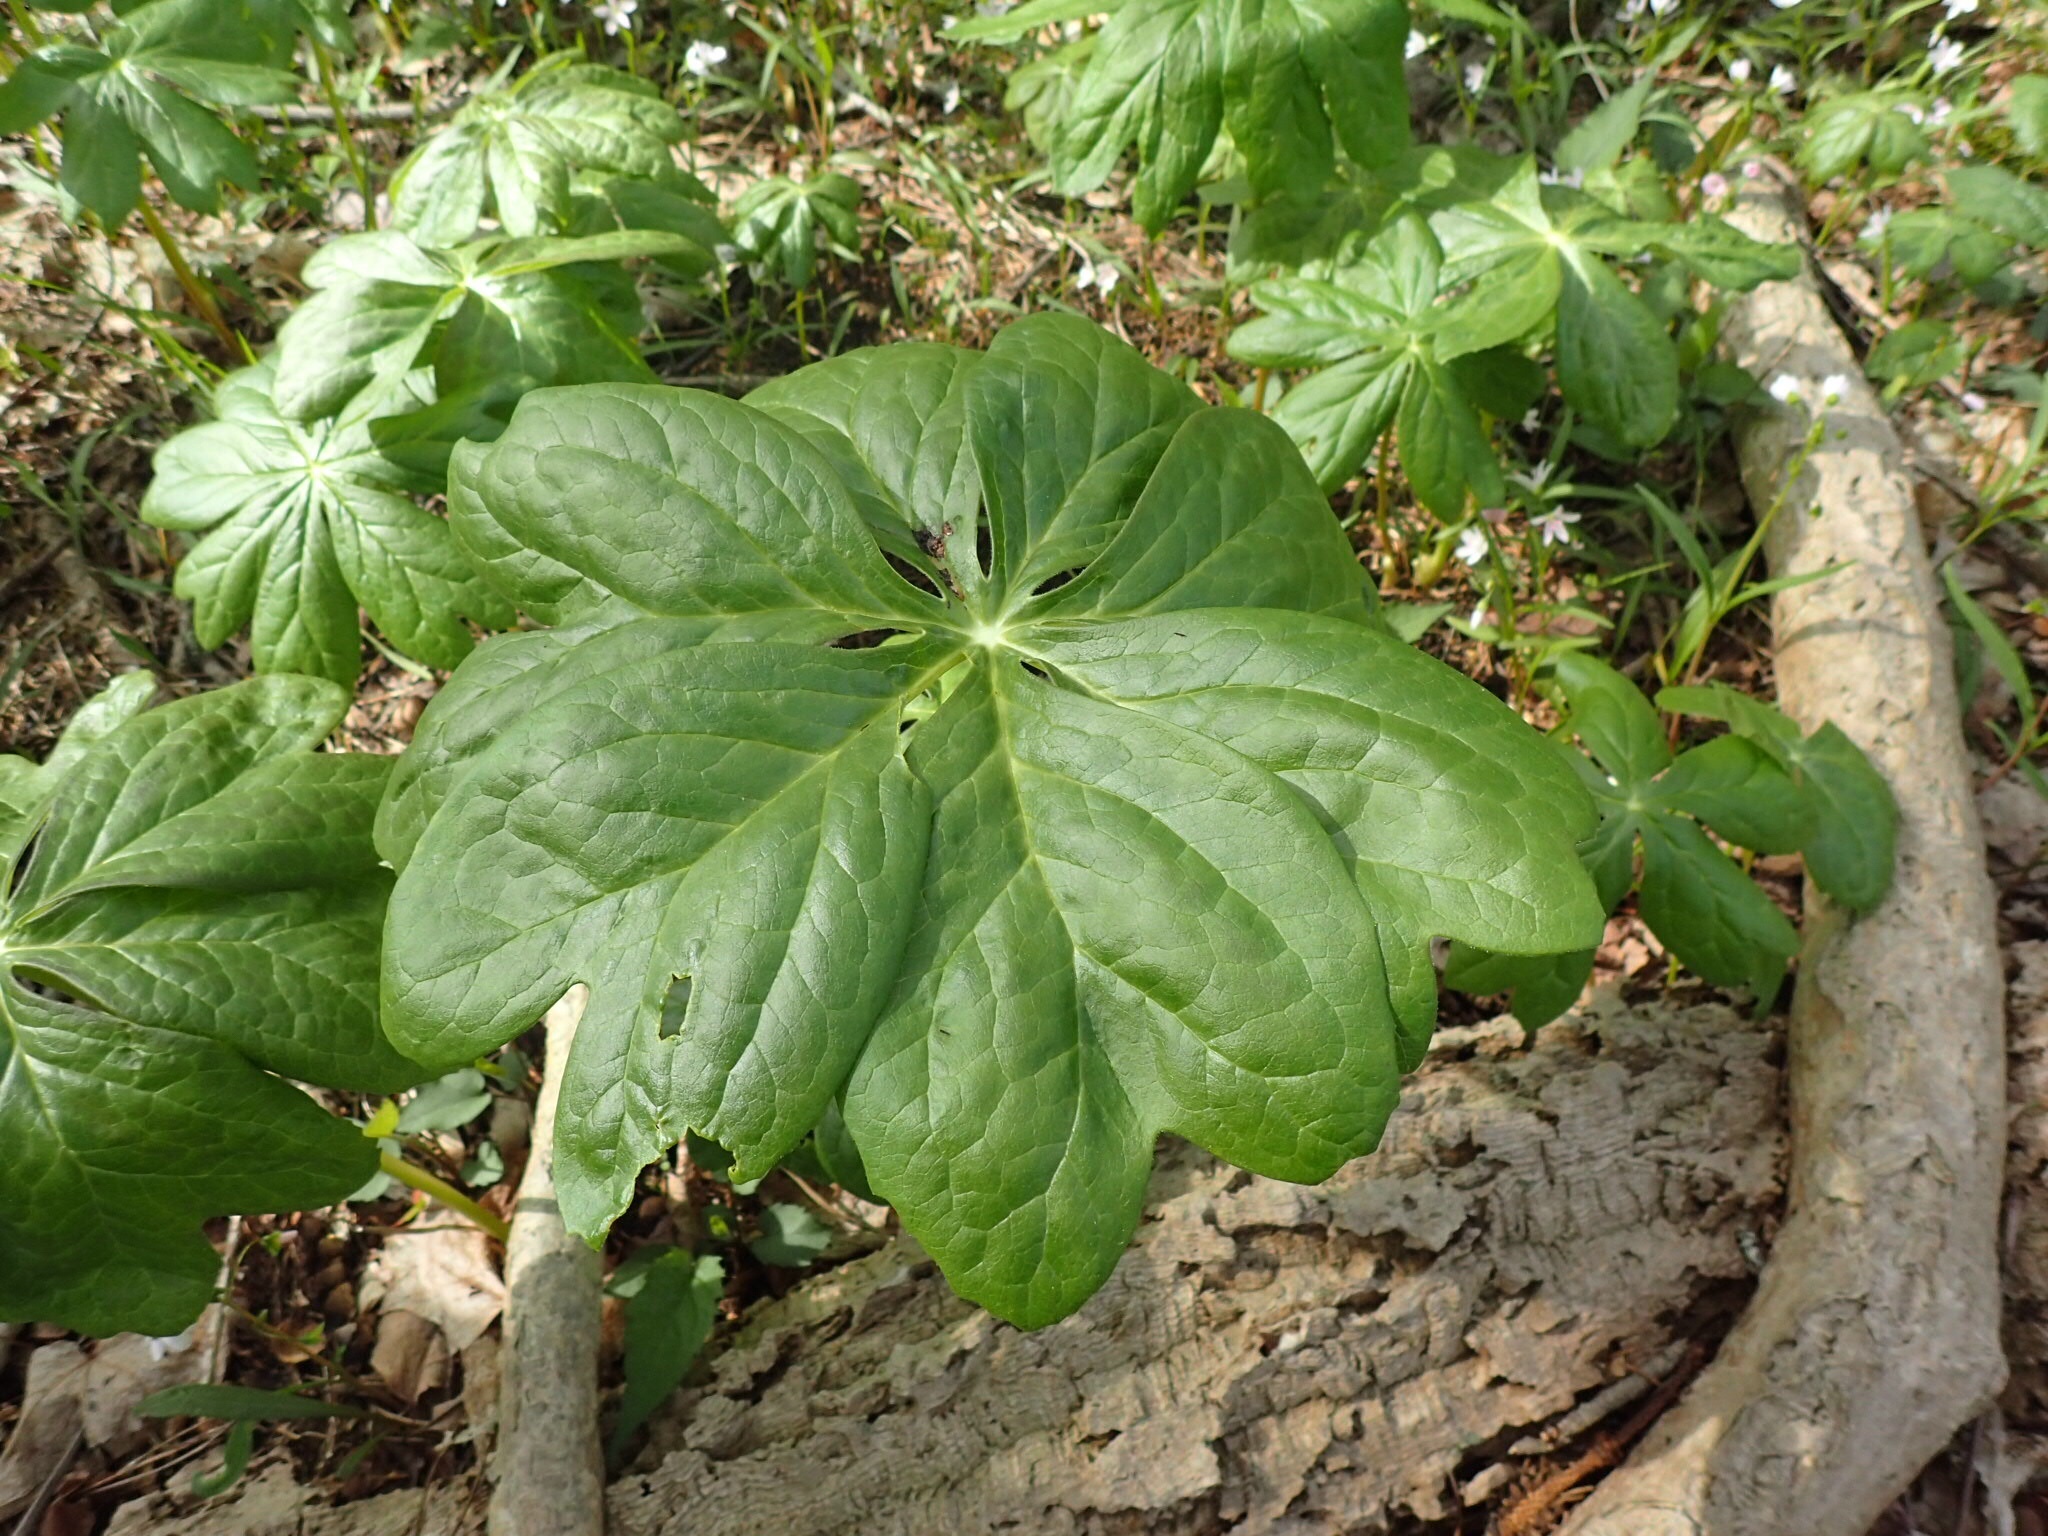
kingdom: Plantae
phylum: Tracheophyta
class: Magnoliopsida
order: Ranunculales
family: Berberidaceae
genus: Podophyllum
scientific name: Podophyllum peltatum
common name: Wild mandrake
